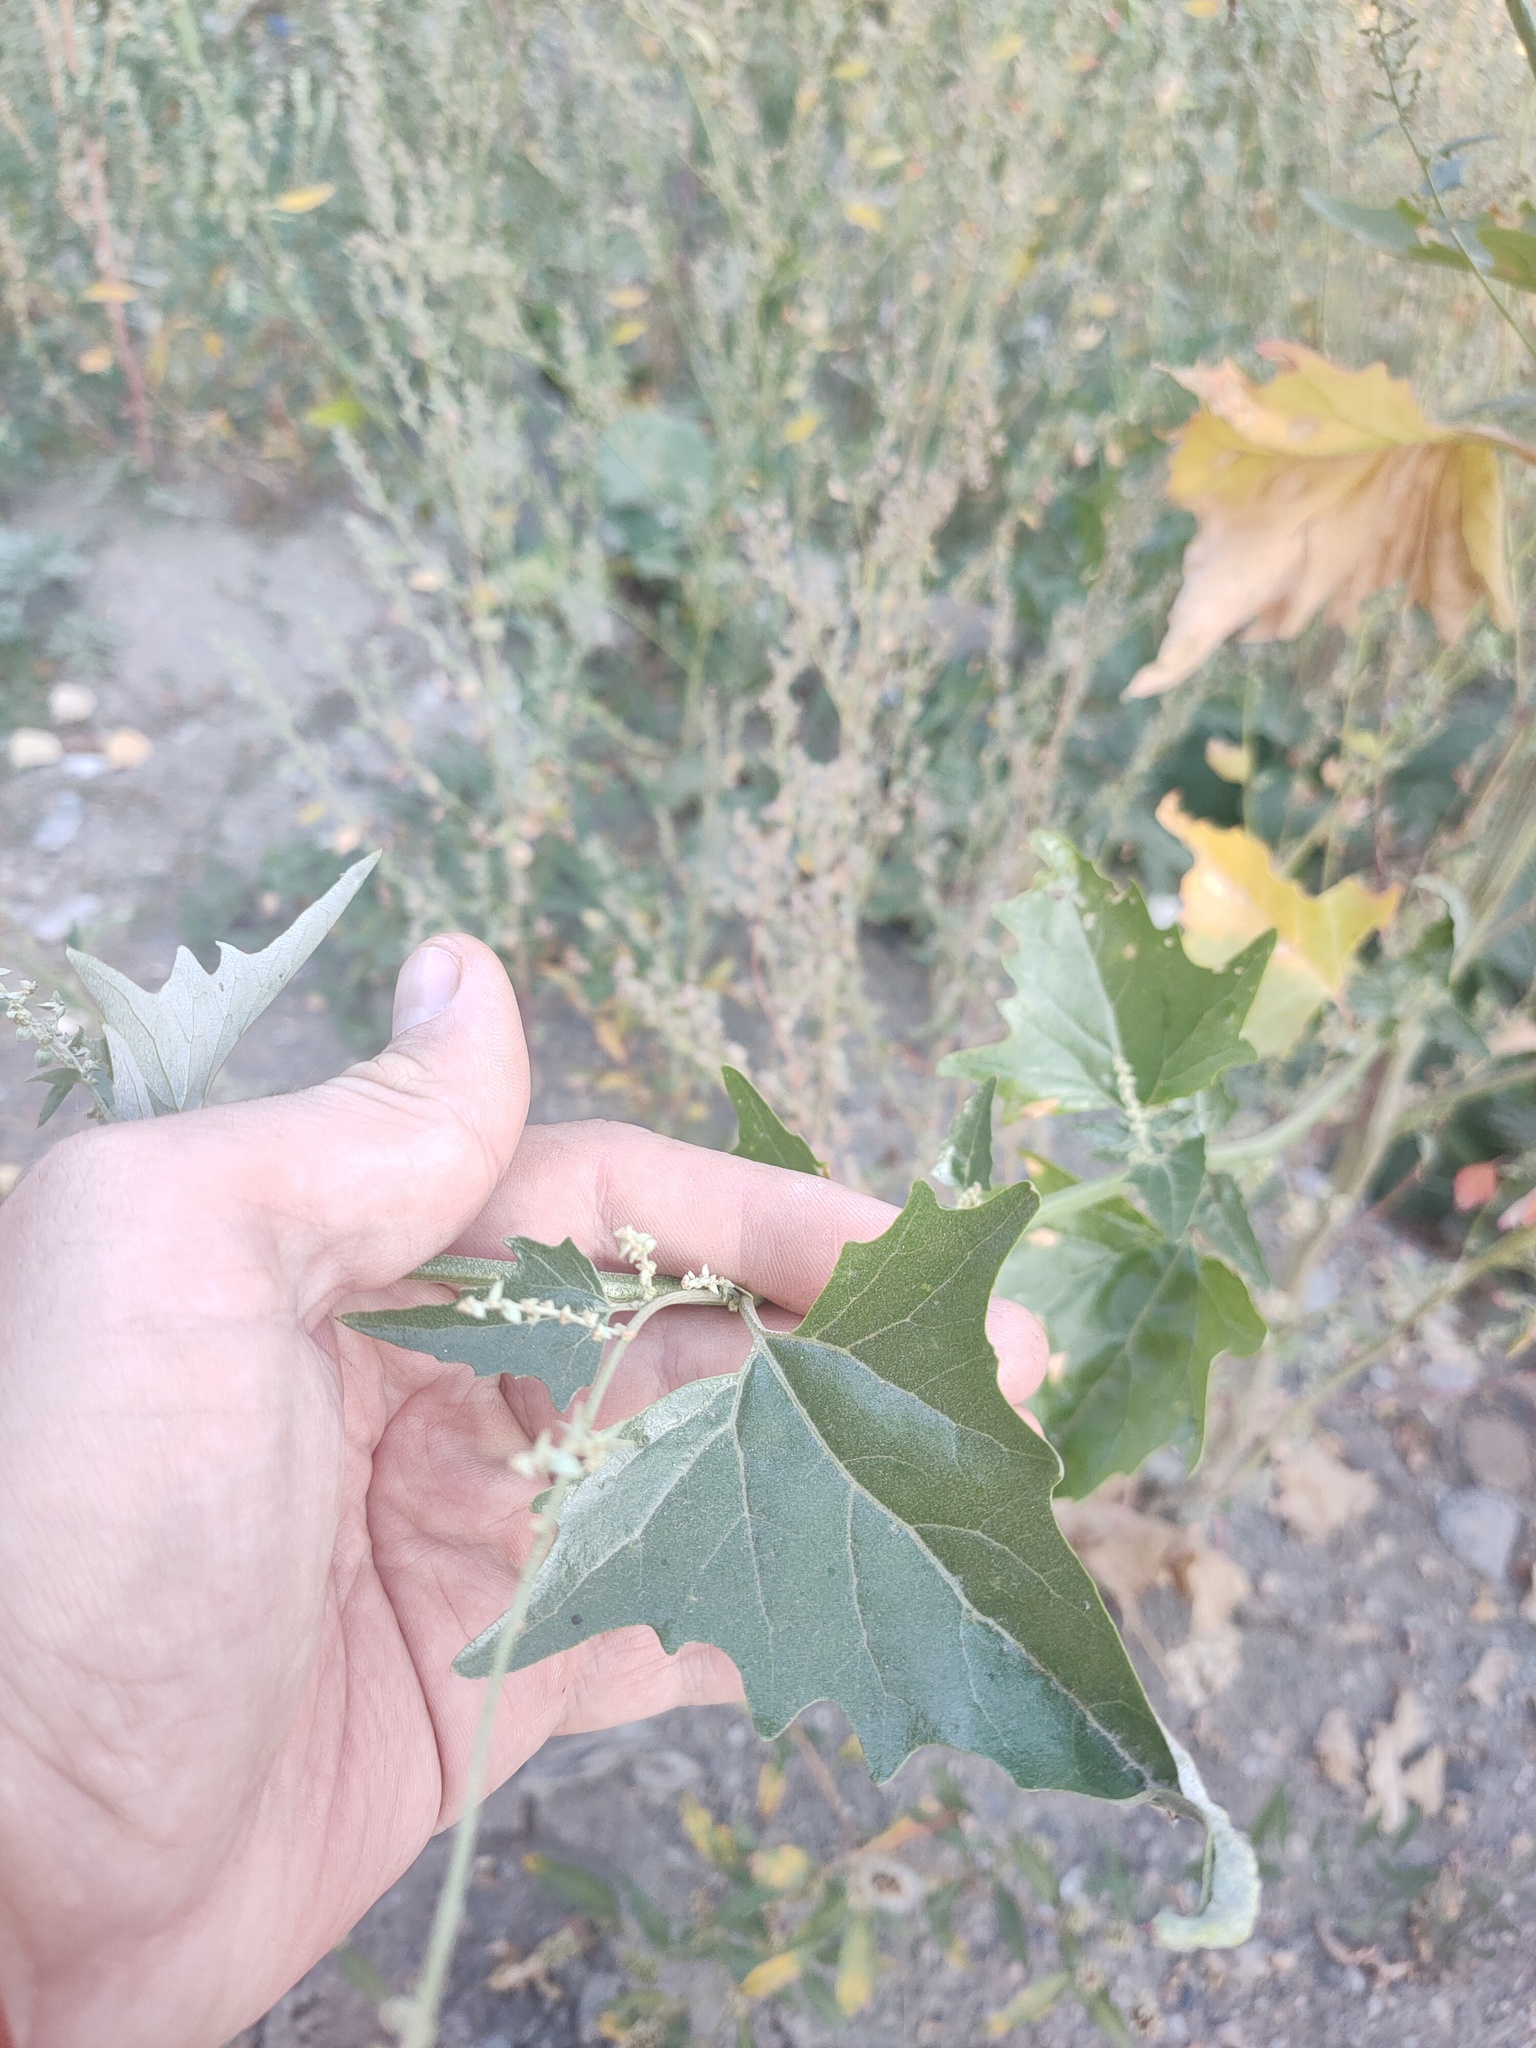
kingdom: Plantae
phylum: Tracheophyta
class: Magnoliopsida
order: Caryophyllales
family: Amaranthaceae
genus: Atriplex
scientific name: Atriplex sagittata
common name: Purple orache
